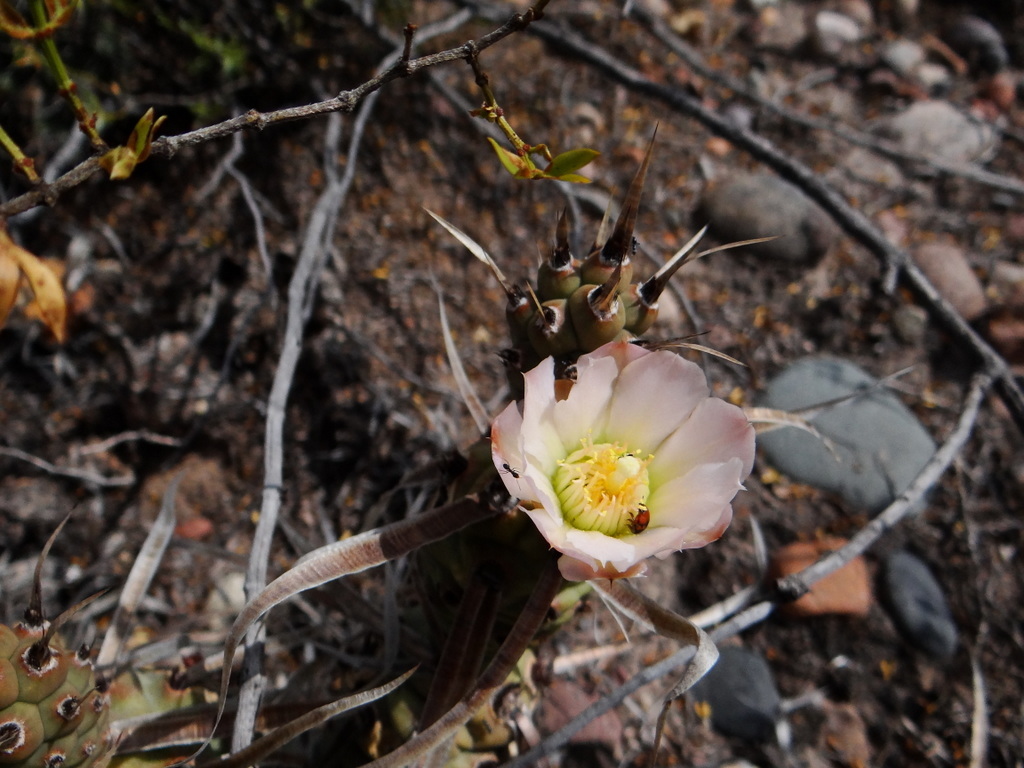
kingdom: Plantae
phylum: Tracheophyta
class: Magnoliopsida
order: Caryophyllales
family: Cactaceae
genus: Tephrocactus
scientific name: Tephrocactus articulatus
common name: Paper cactus
